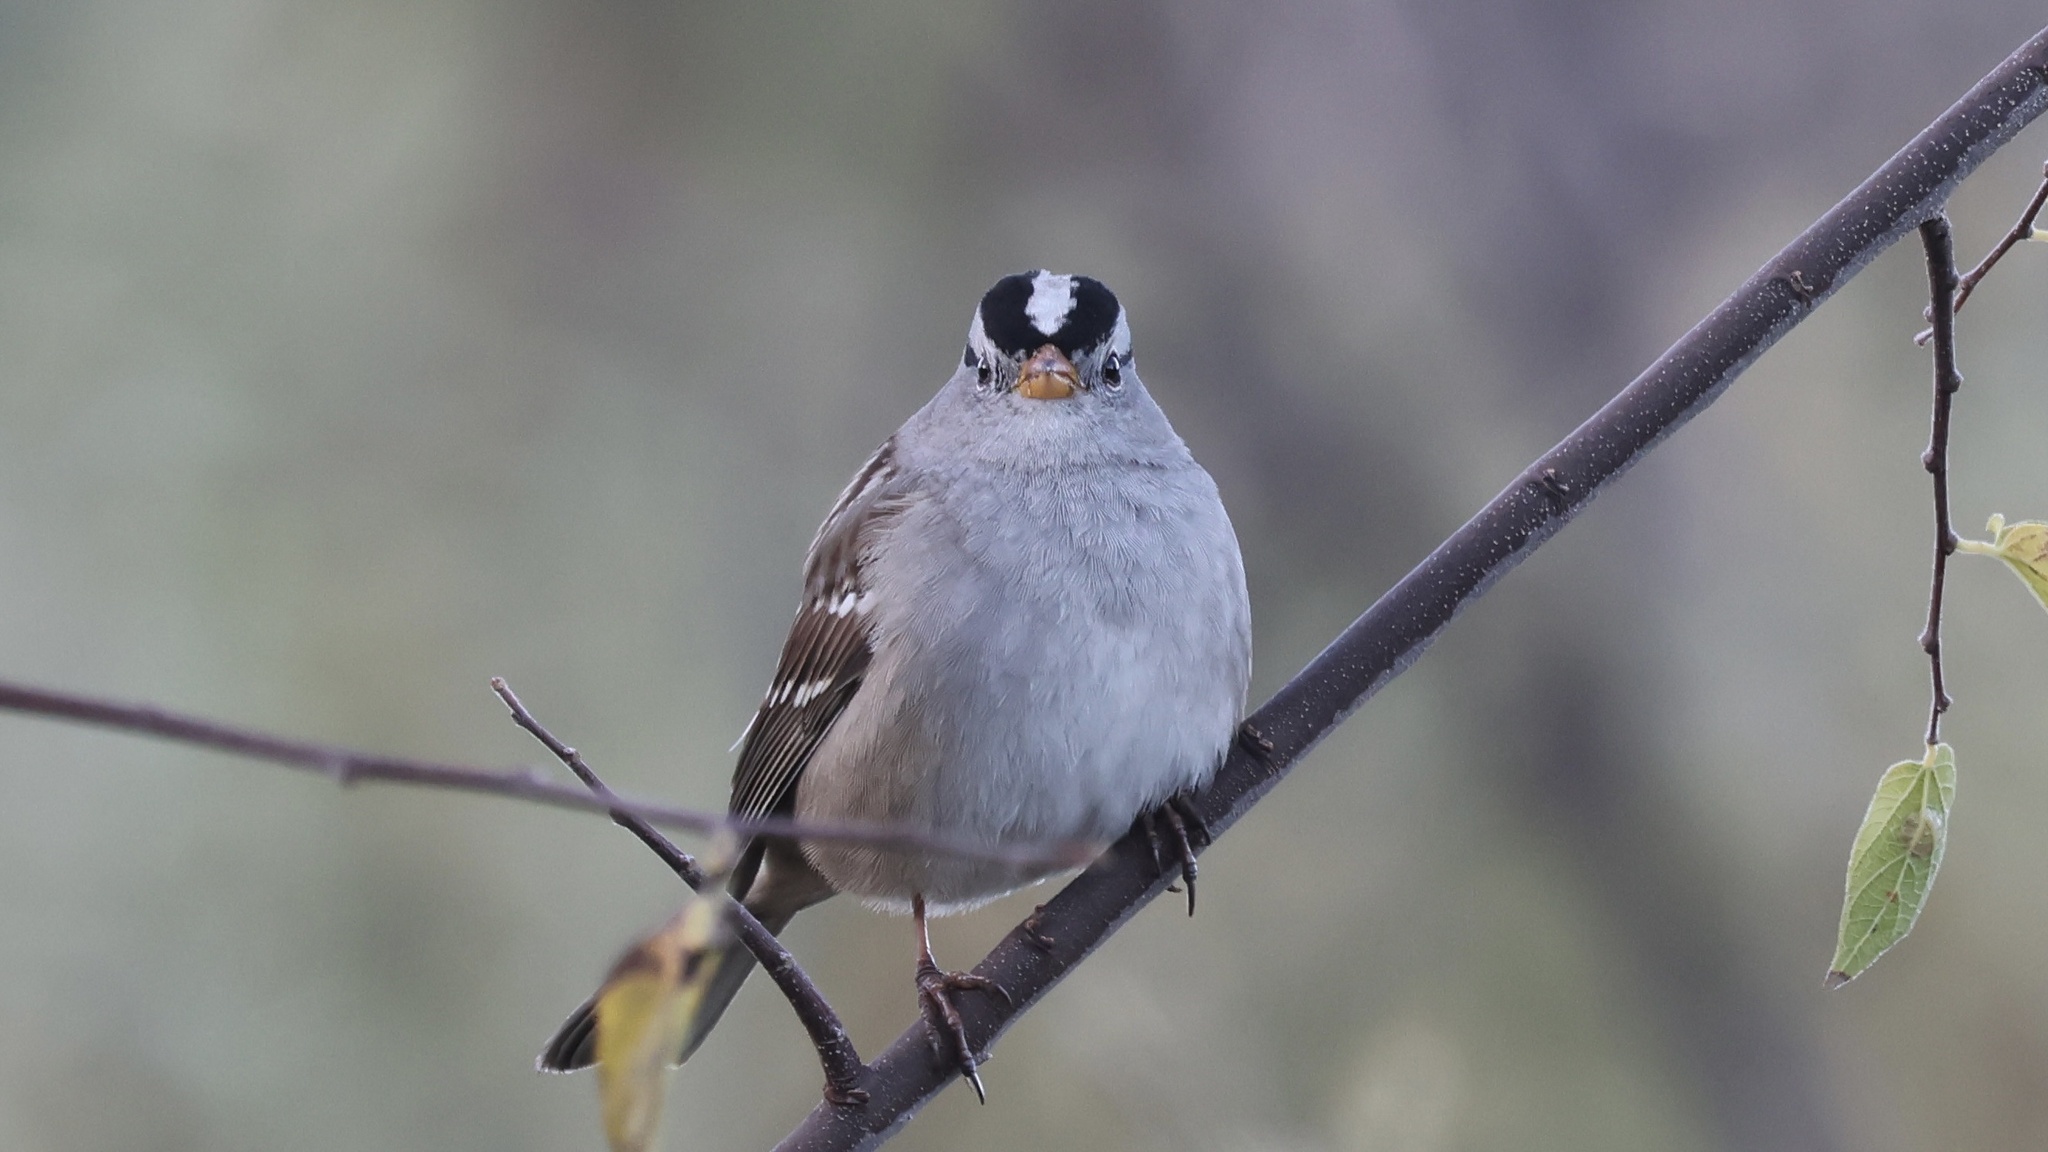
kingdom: Animalia
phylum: Chordata
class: Aves
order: Passeriformes
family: Passerellidae
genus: Zonotrichia
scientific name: Zonotrichia leucophrys
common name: White-crowned sparrow
